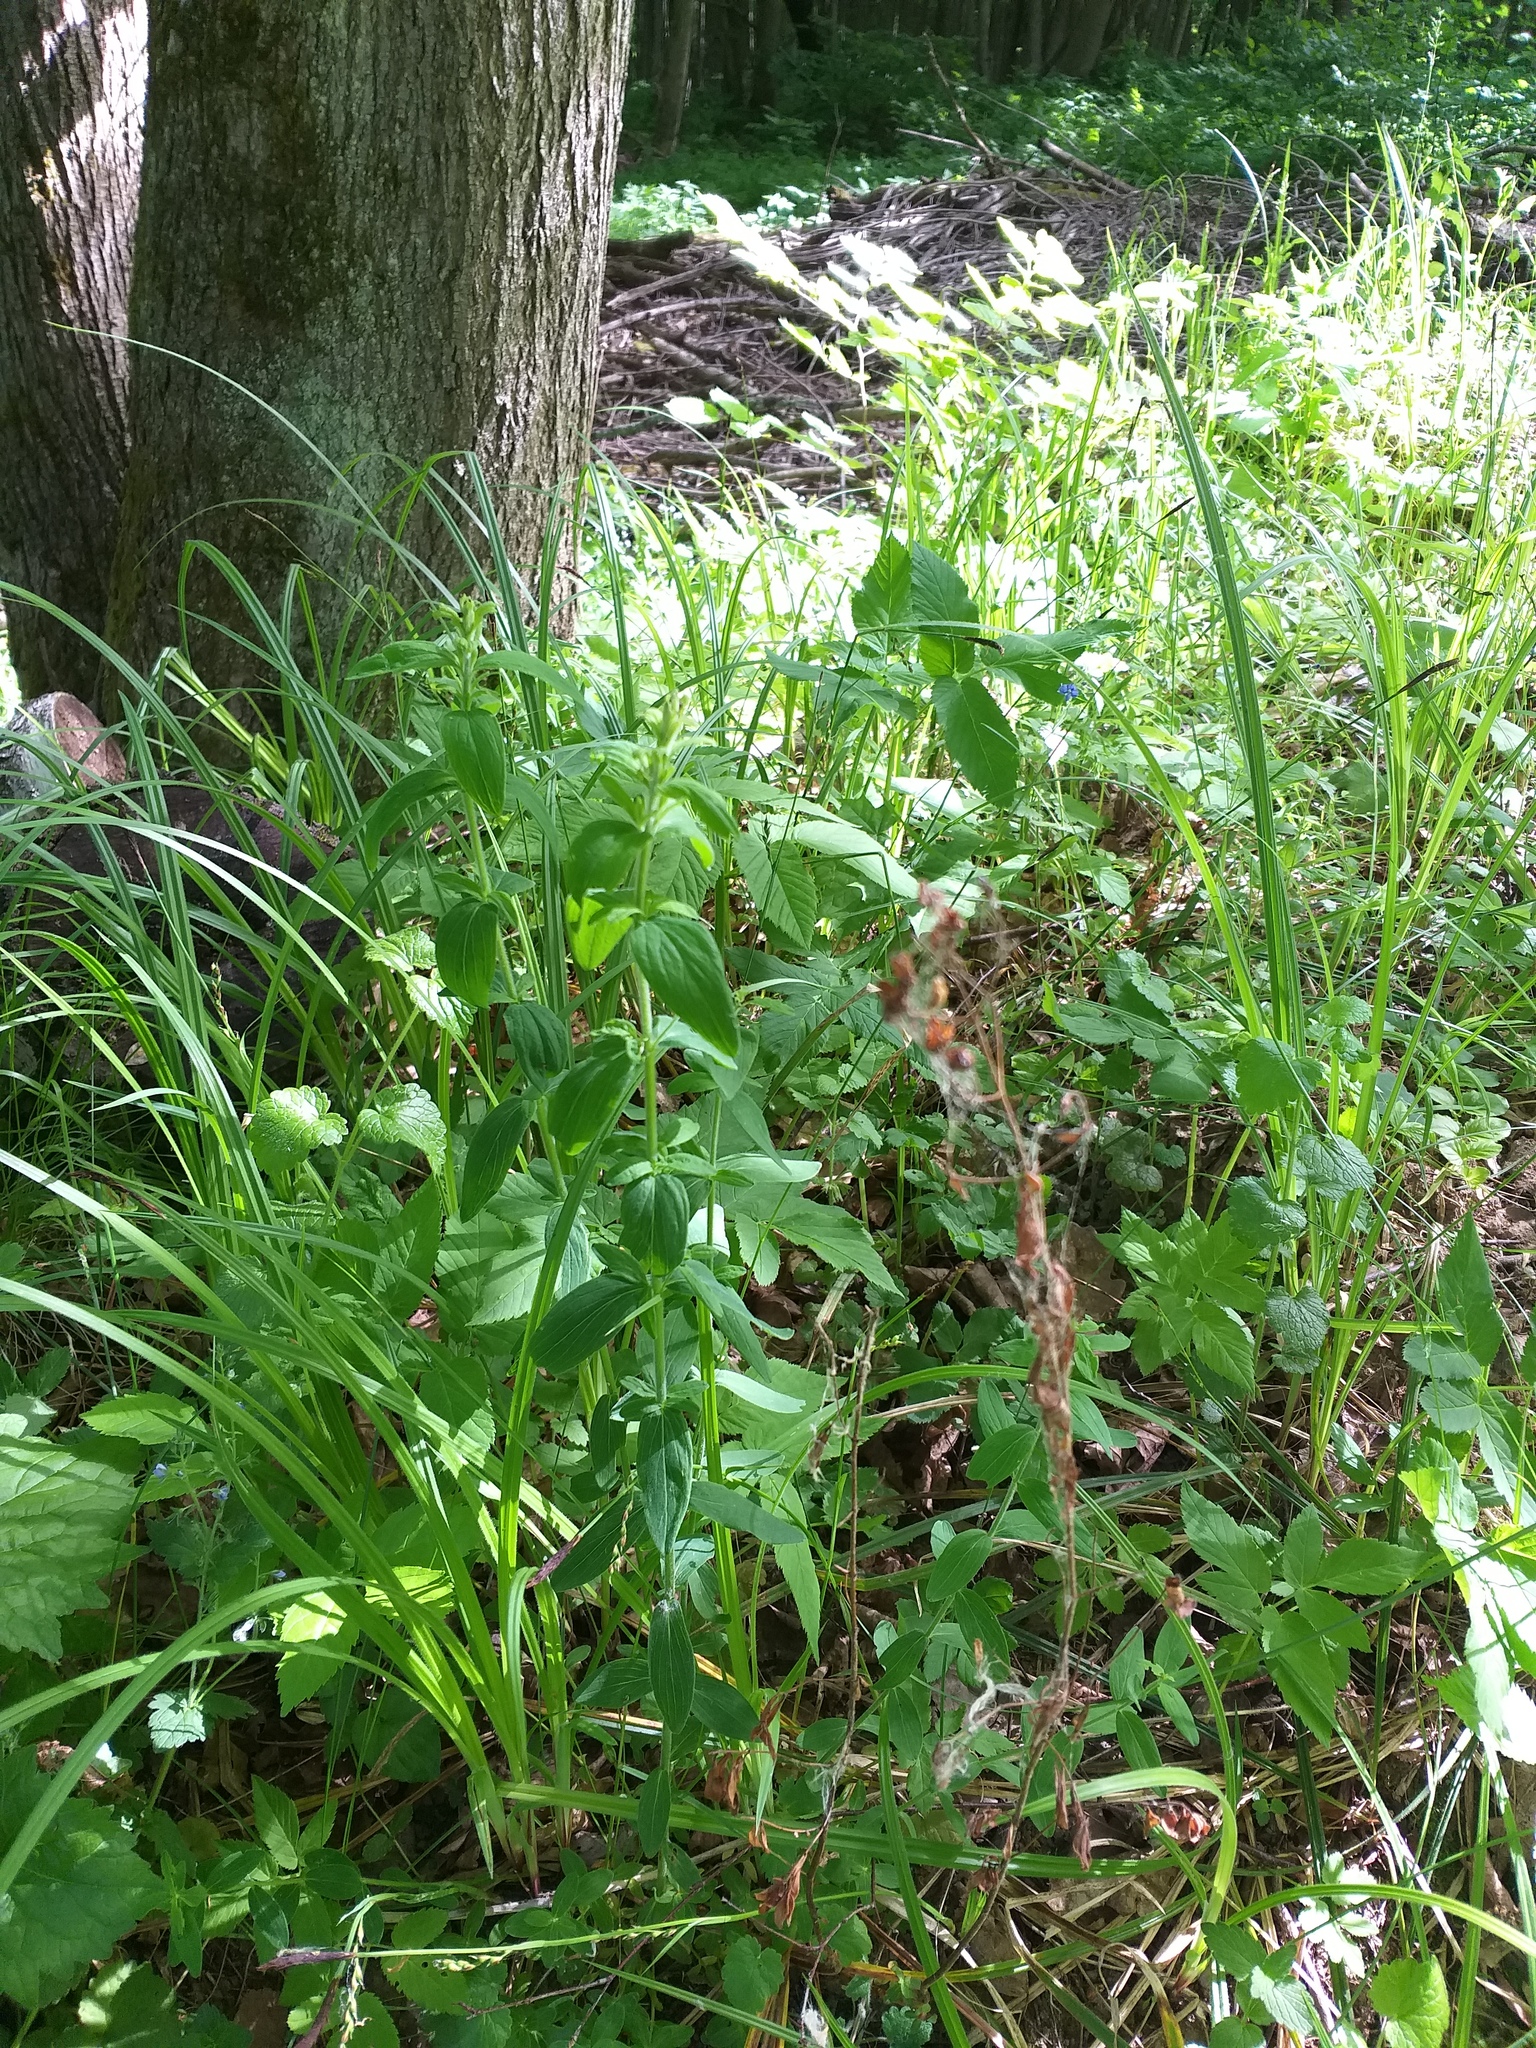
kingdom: Plantae
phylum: Tracheophyta
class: Magnoliopsida
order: Malpighiales
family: Hypericaceae
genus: Hypericum
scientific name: Hypericum hirsutum
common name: Hairy st. john's-wort
